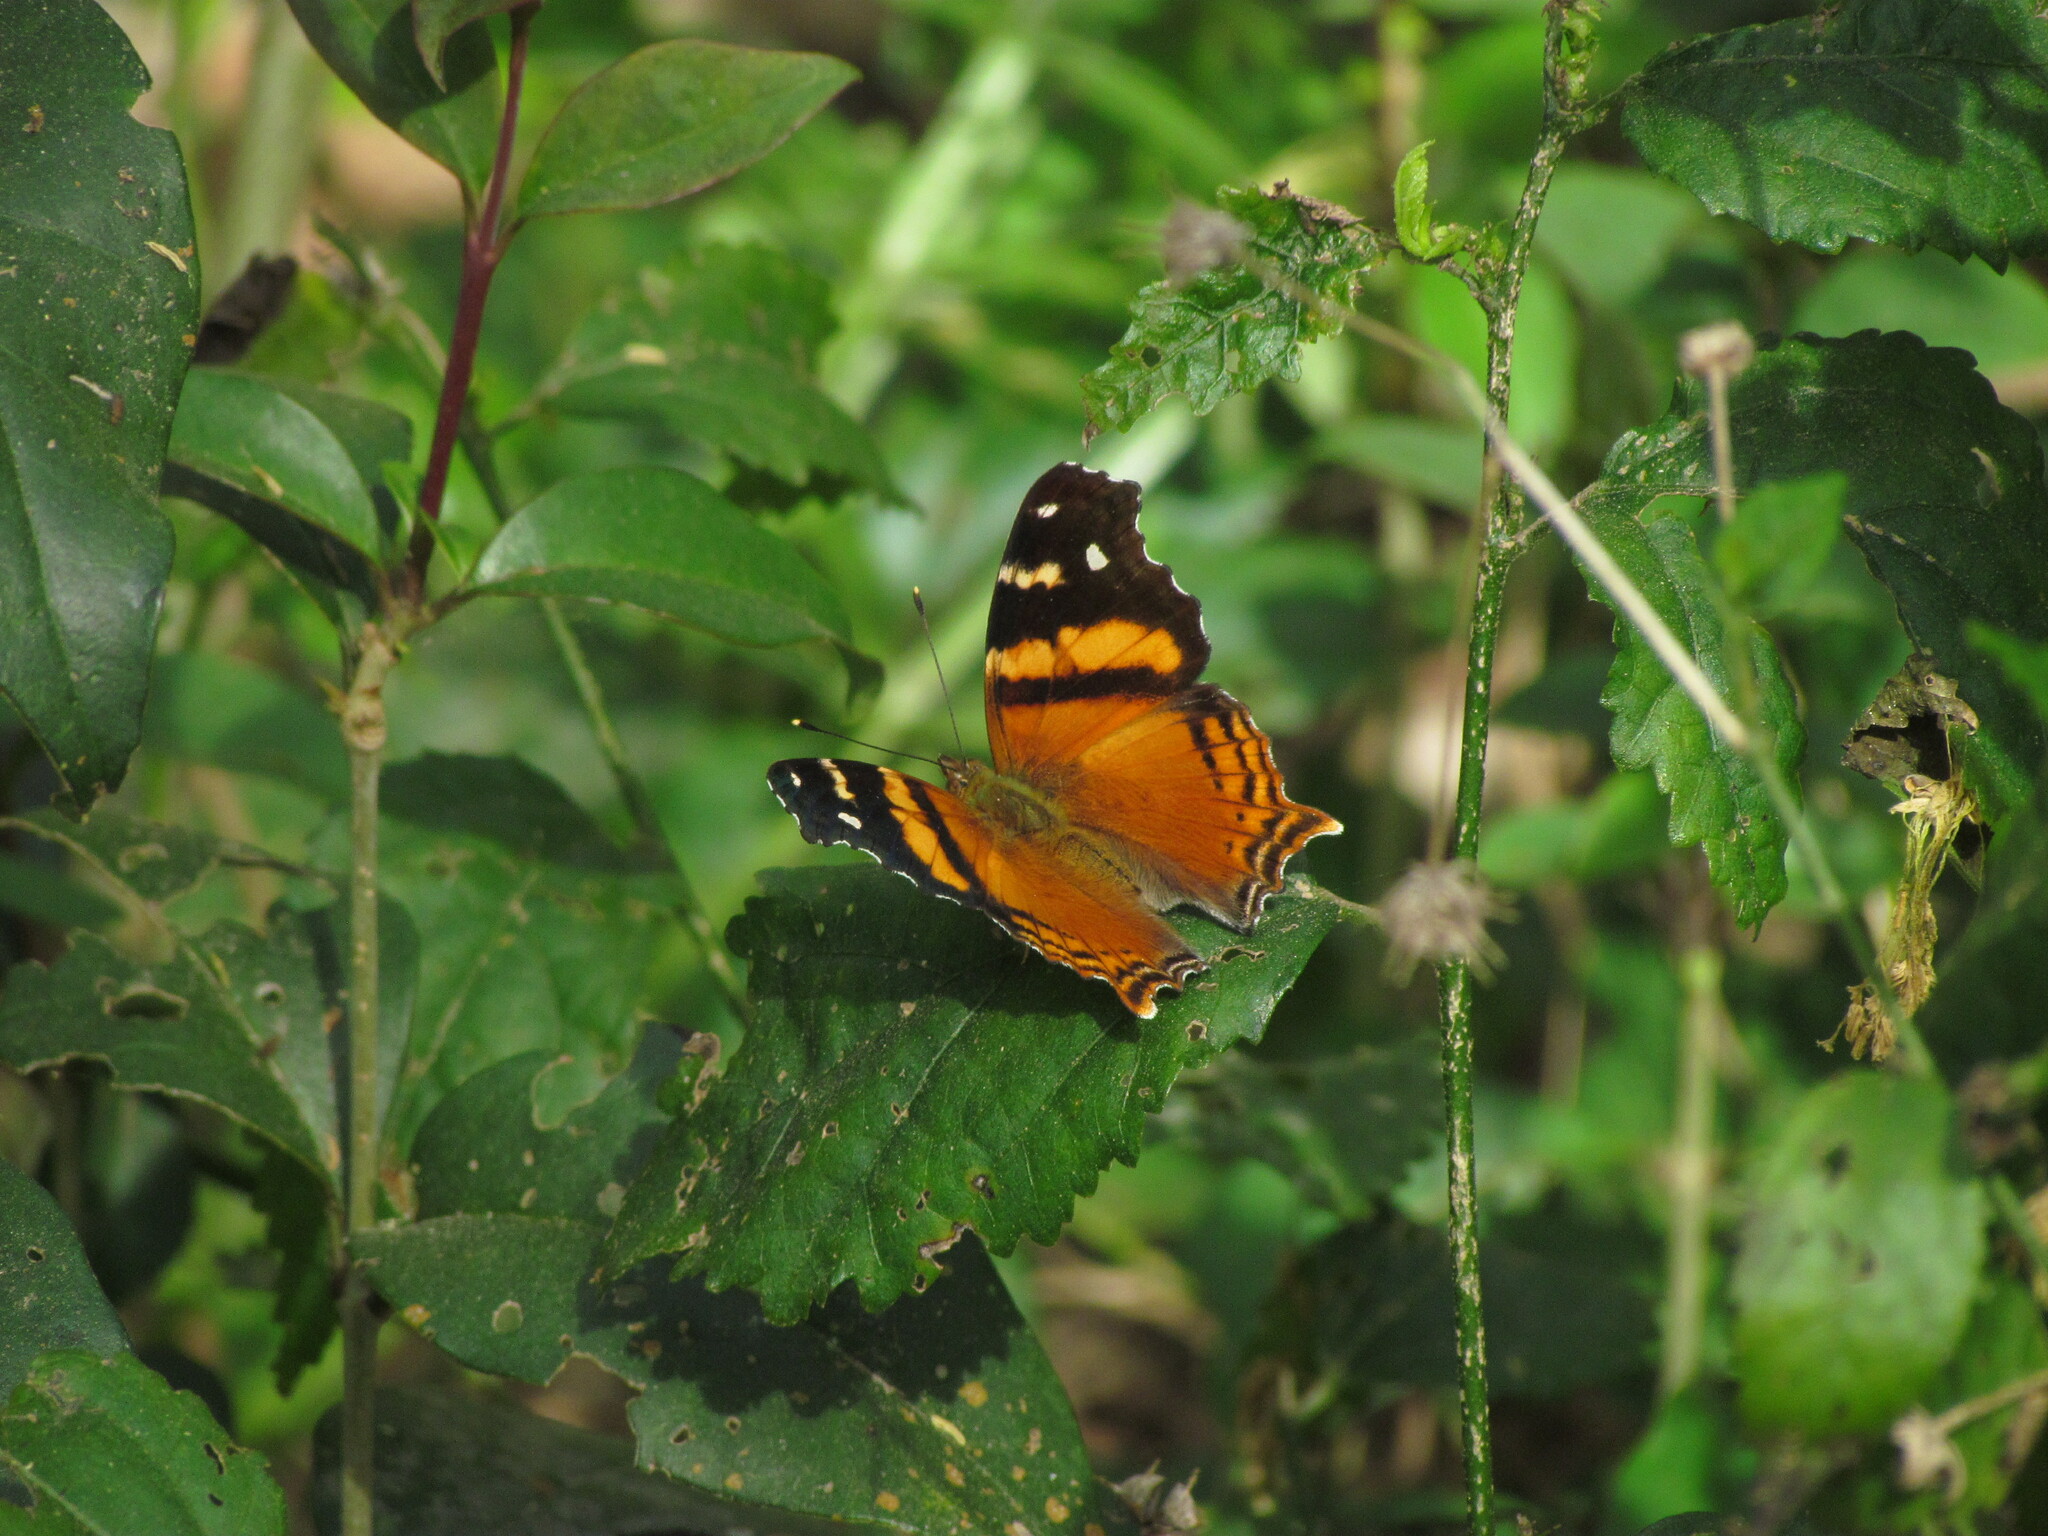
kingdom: Animalia
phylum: Arthropoda
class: Insecta
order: Lepidoptera
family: Nymphalidae
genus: Hypanartia
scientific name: Hypanartia bella
